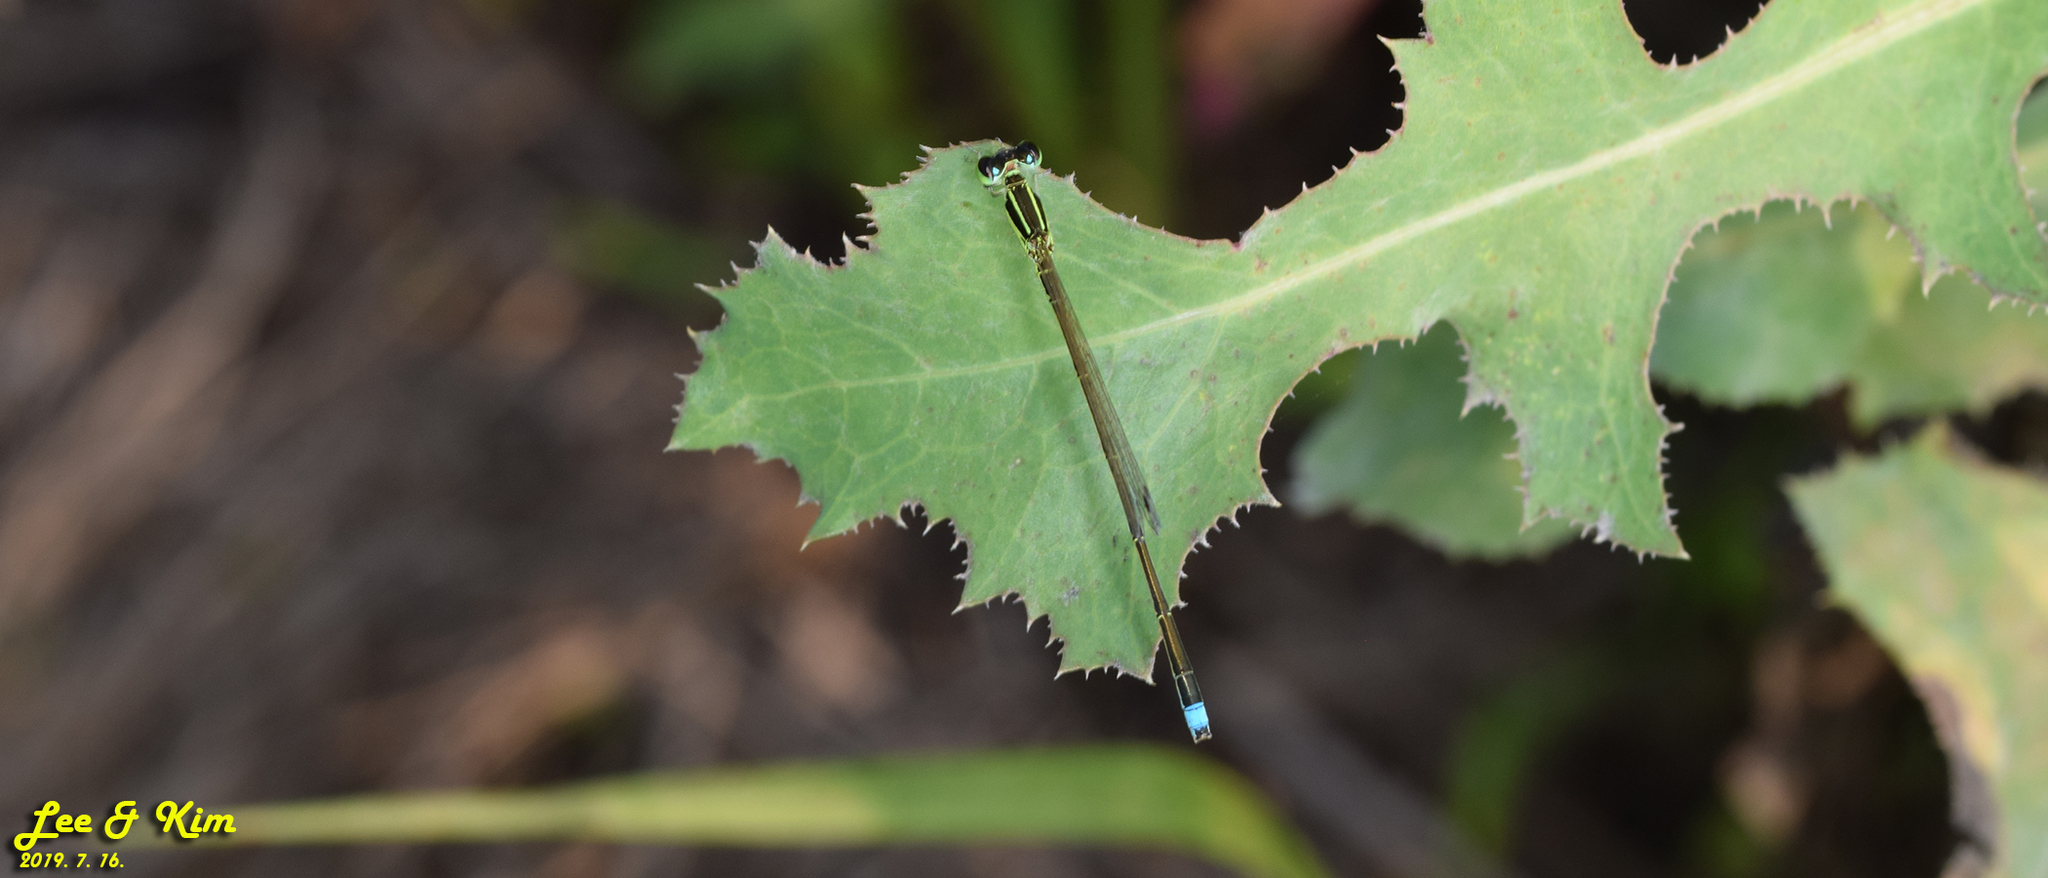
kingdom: Animalia
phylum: Arthropoda
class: Insecta
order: Odonata
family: Coenagrionidae
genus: Ischnura
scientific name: Ischnura asiatica
